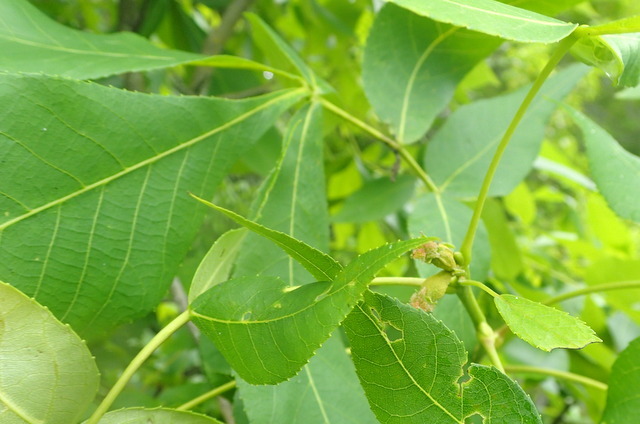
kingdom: Plantae
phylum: Tracheophyta
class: Magnoliopsida
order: Fagales
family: Juglandaceae
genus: Carya
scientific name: Carya glabra
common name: Pignut hickory
